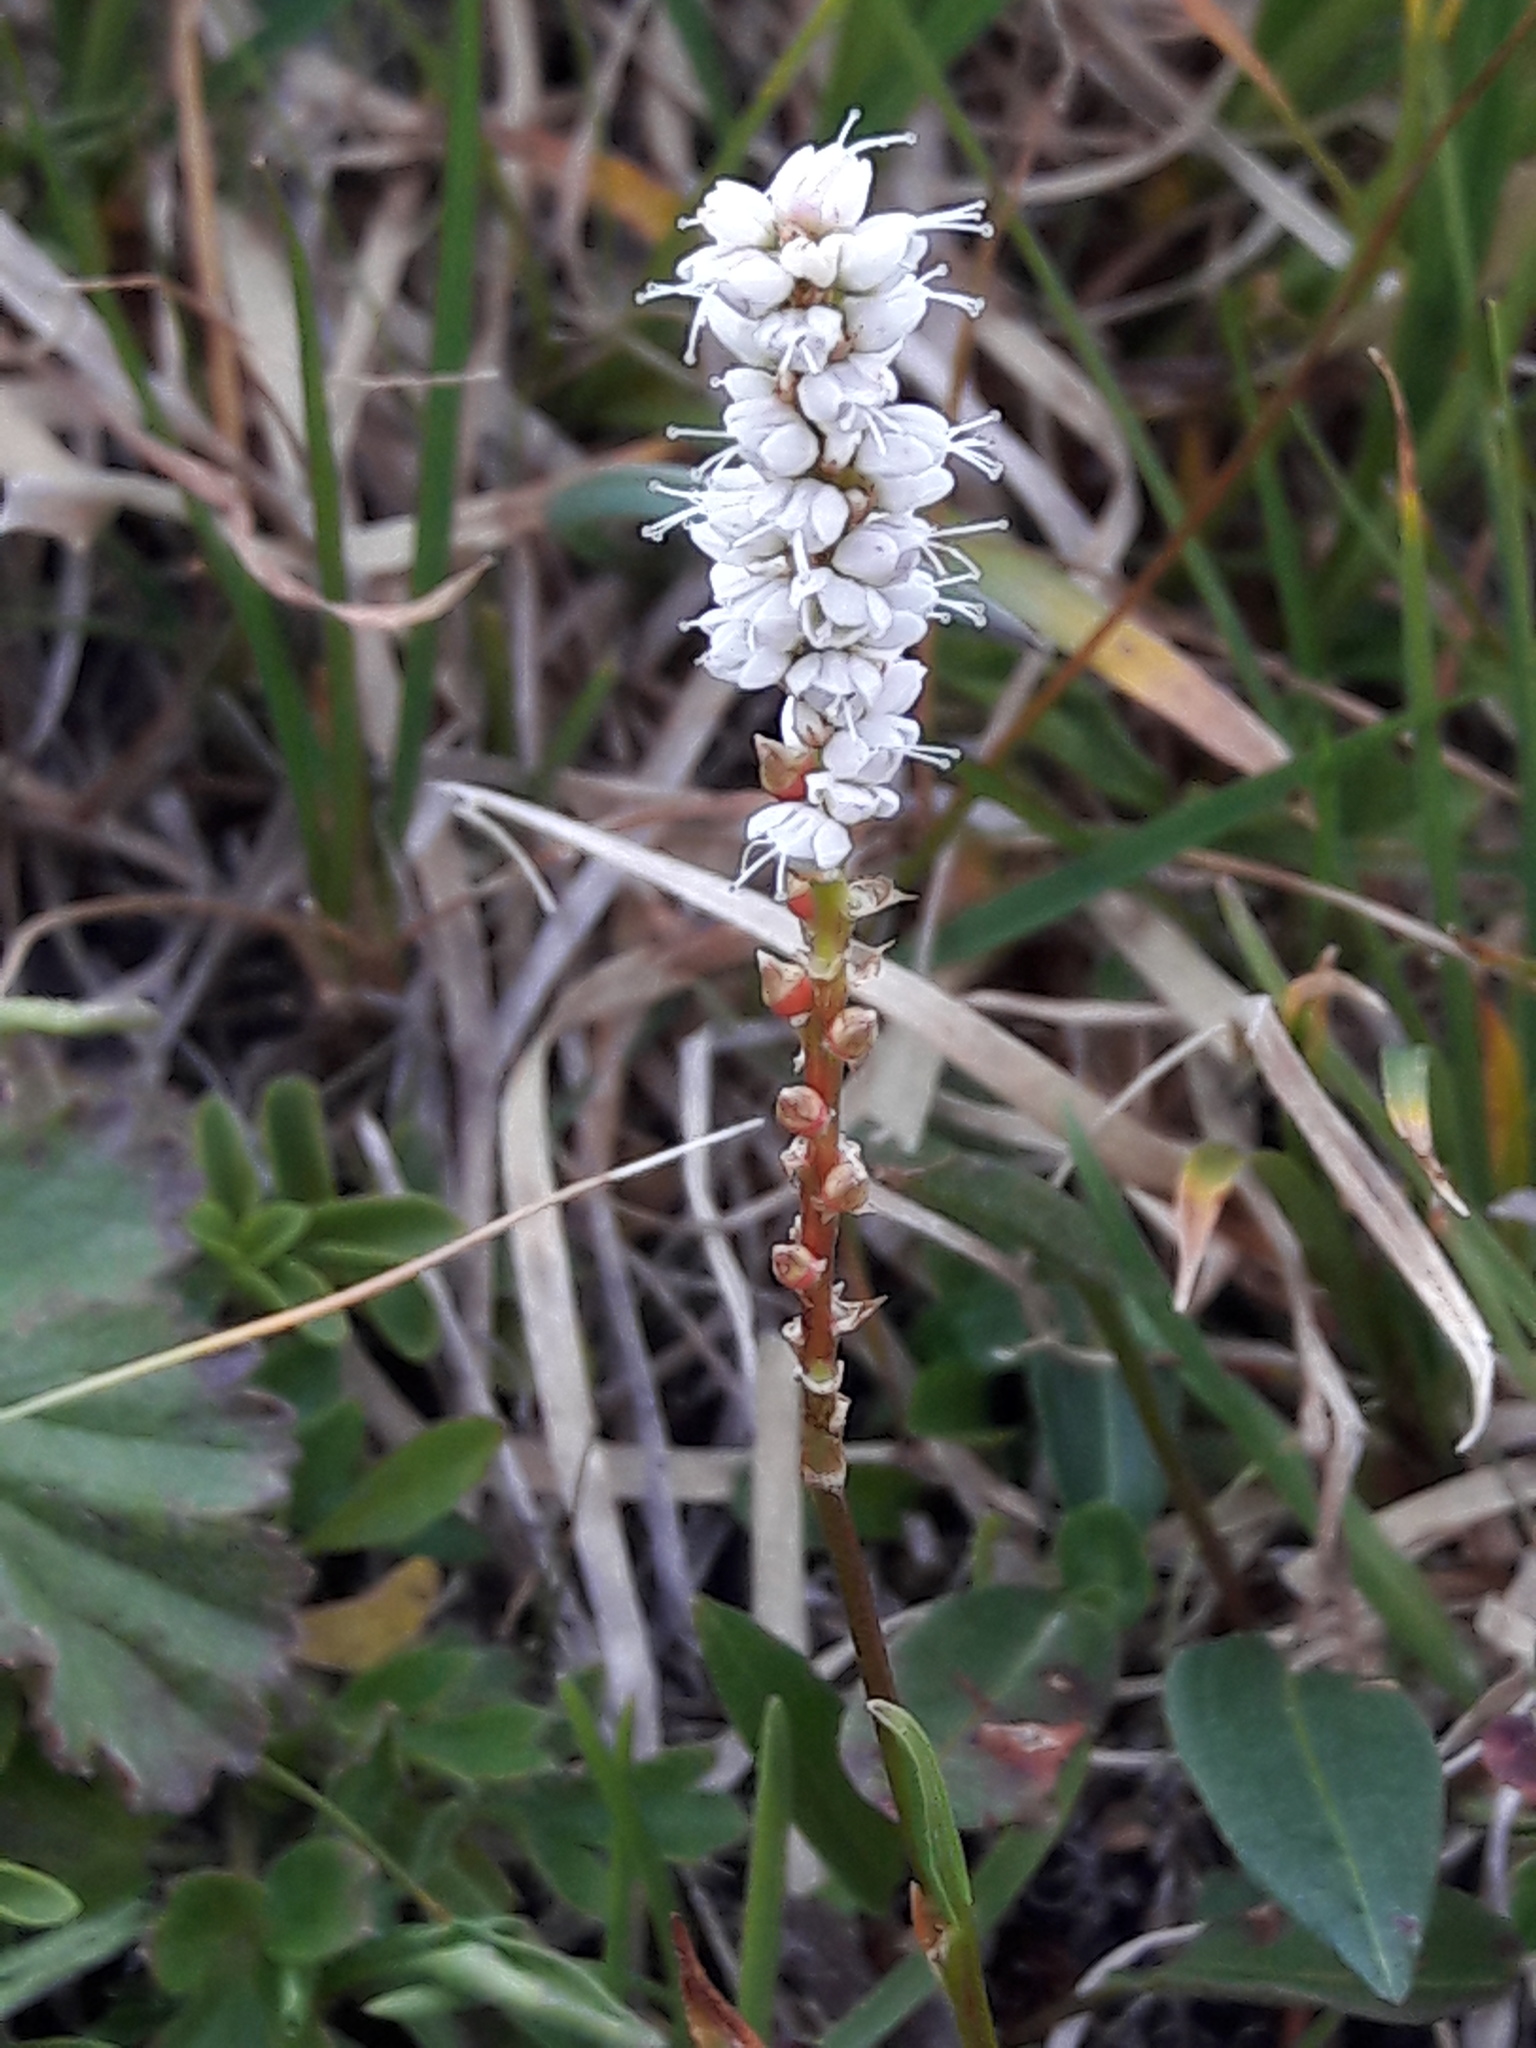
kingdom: Plantae
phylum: Tracheophyta
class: Magnoliopsida
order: Caryophyllales
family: Polygonaceae
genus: Bistorta
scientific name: Bistorta vivipara
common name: Alpine bistort
